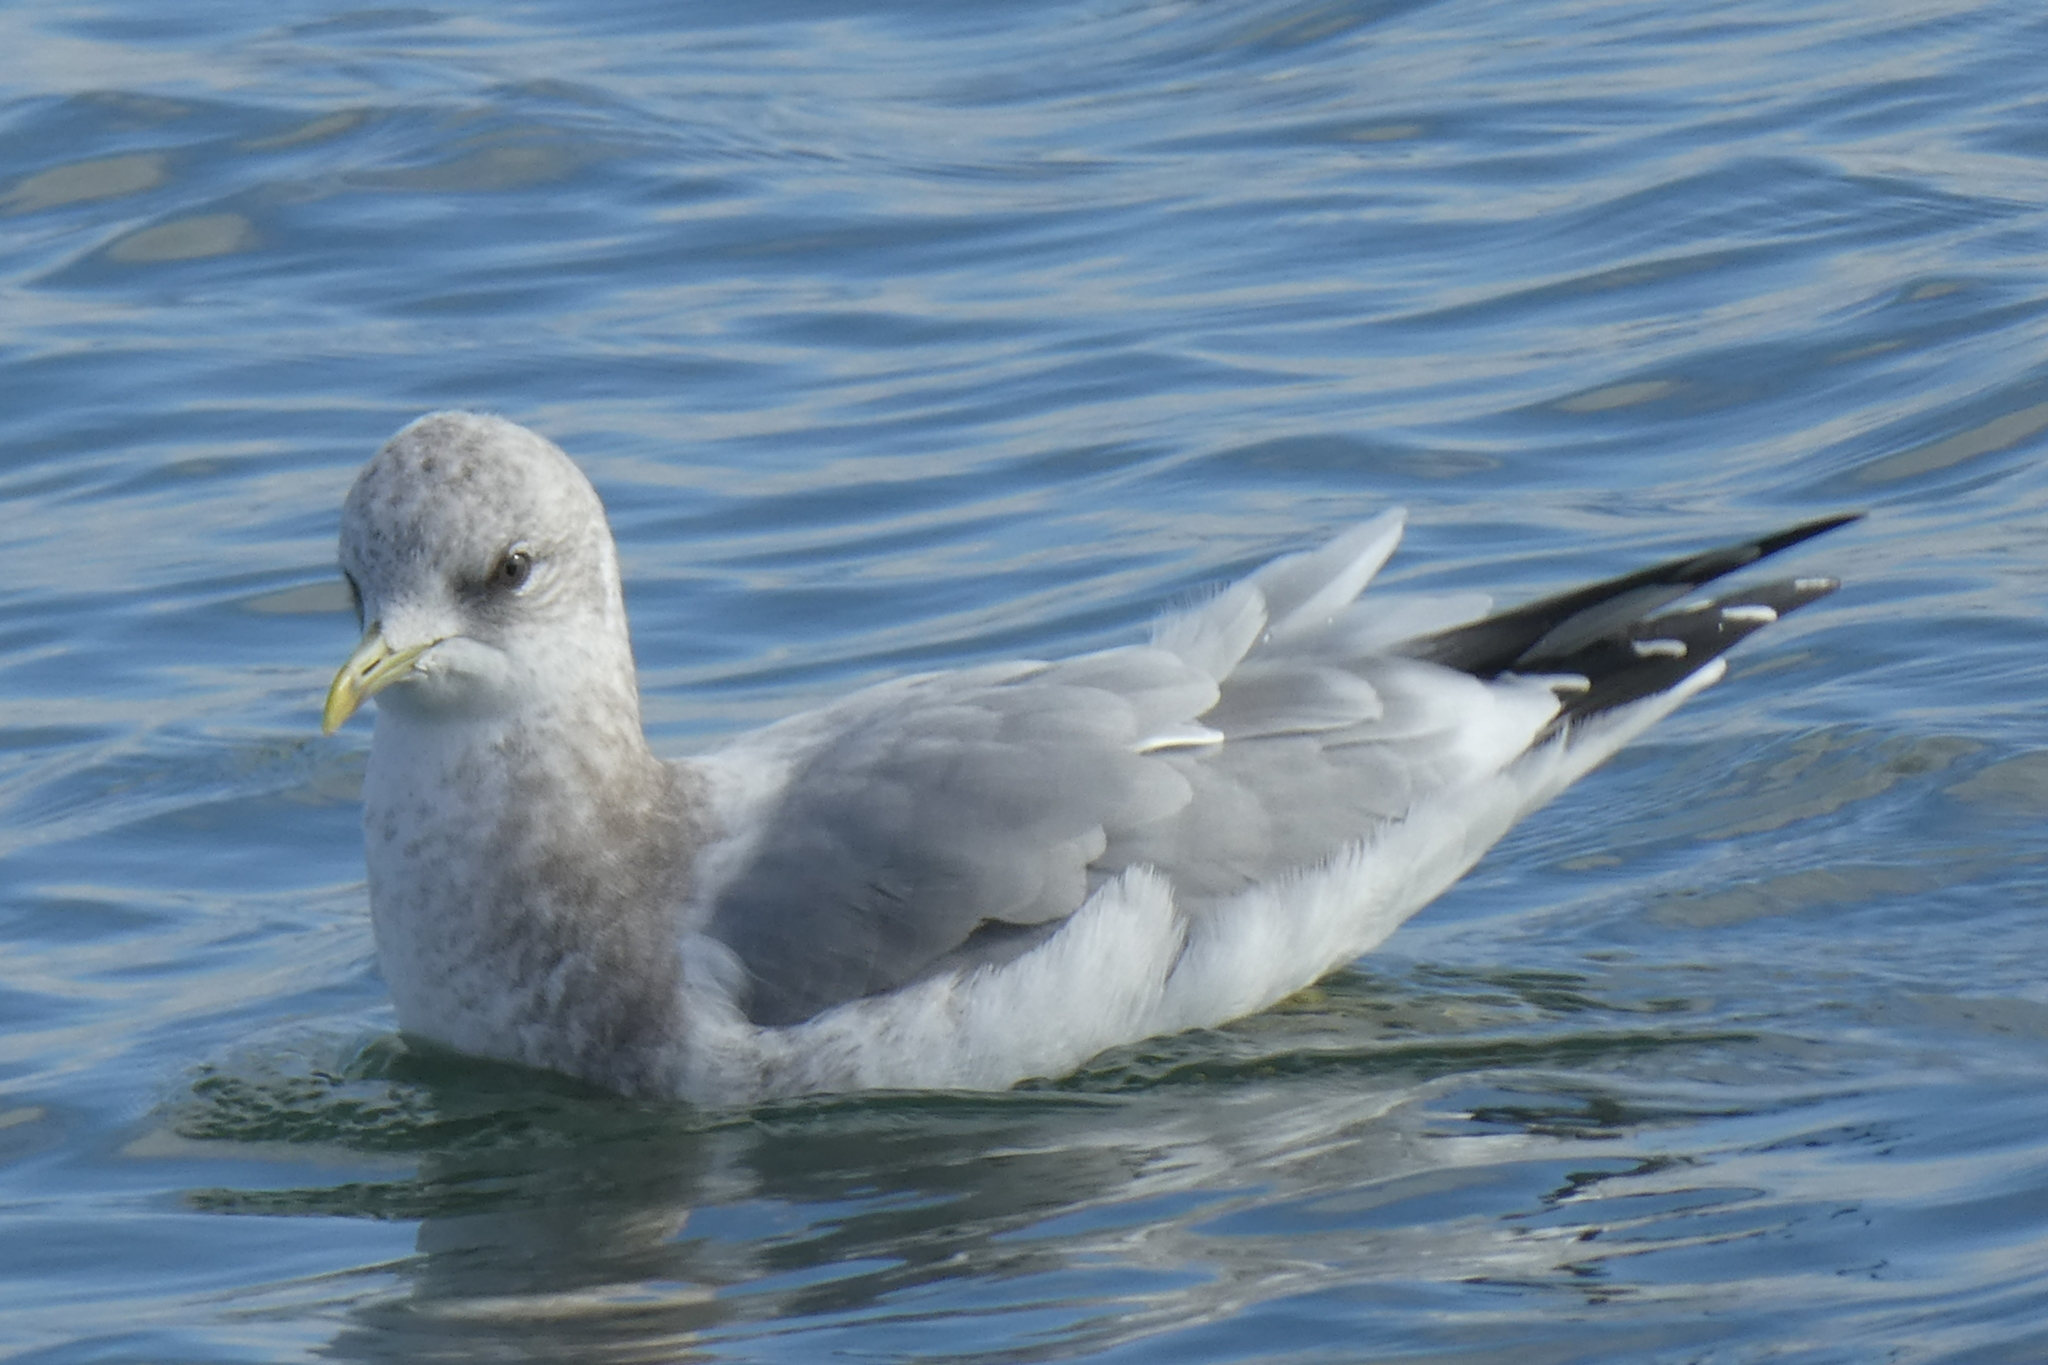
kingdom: Animalia
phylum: Chordata
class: Aves
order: Charadriiformes
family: Laridae
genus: Larus
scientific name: Larus brachyrhynchus
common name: Short-billed gull
